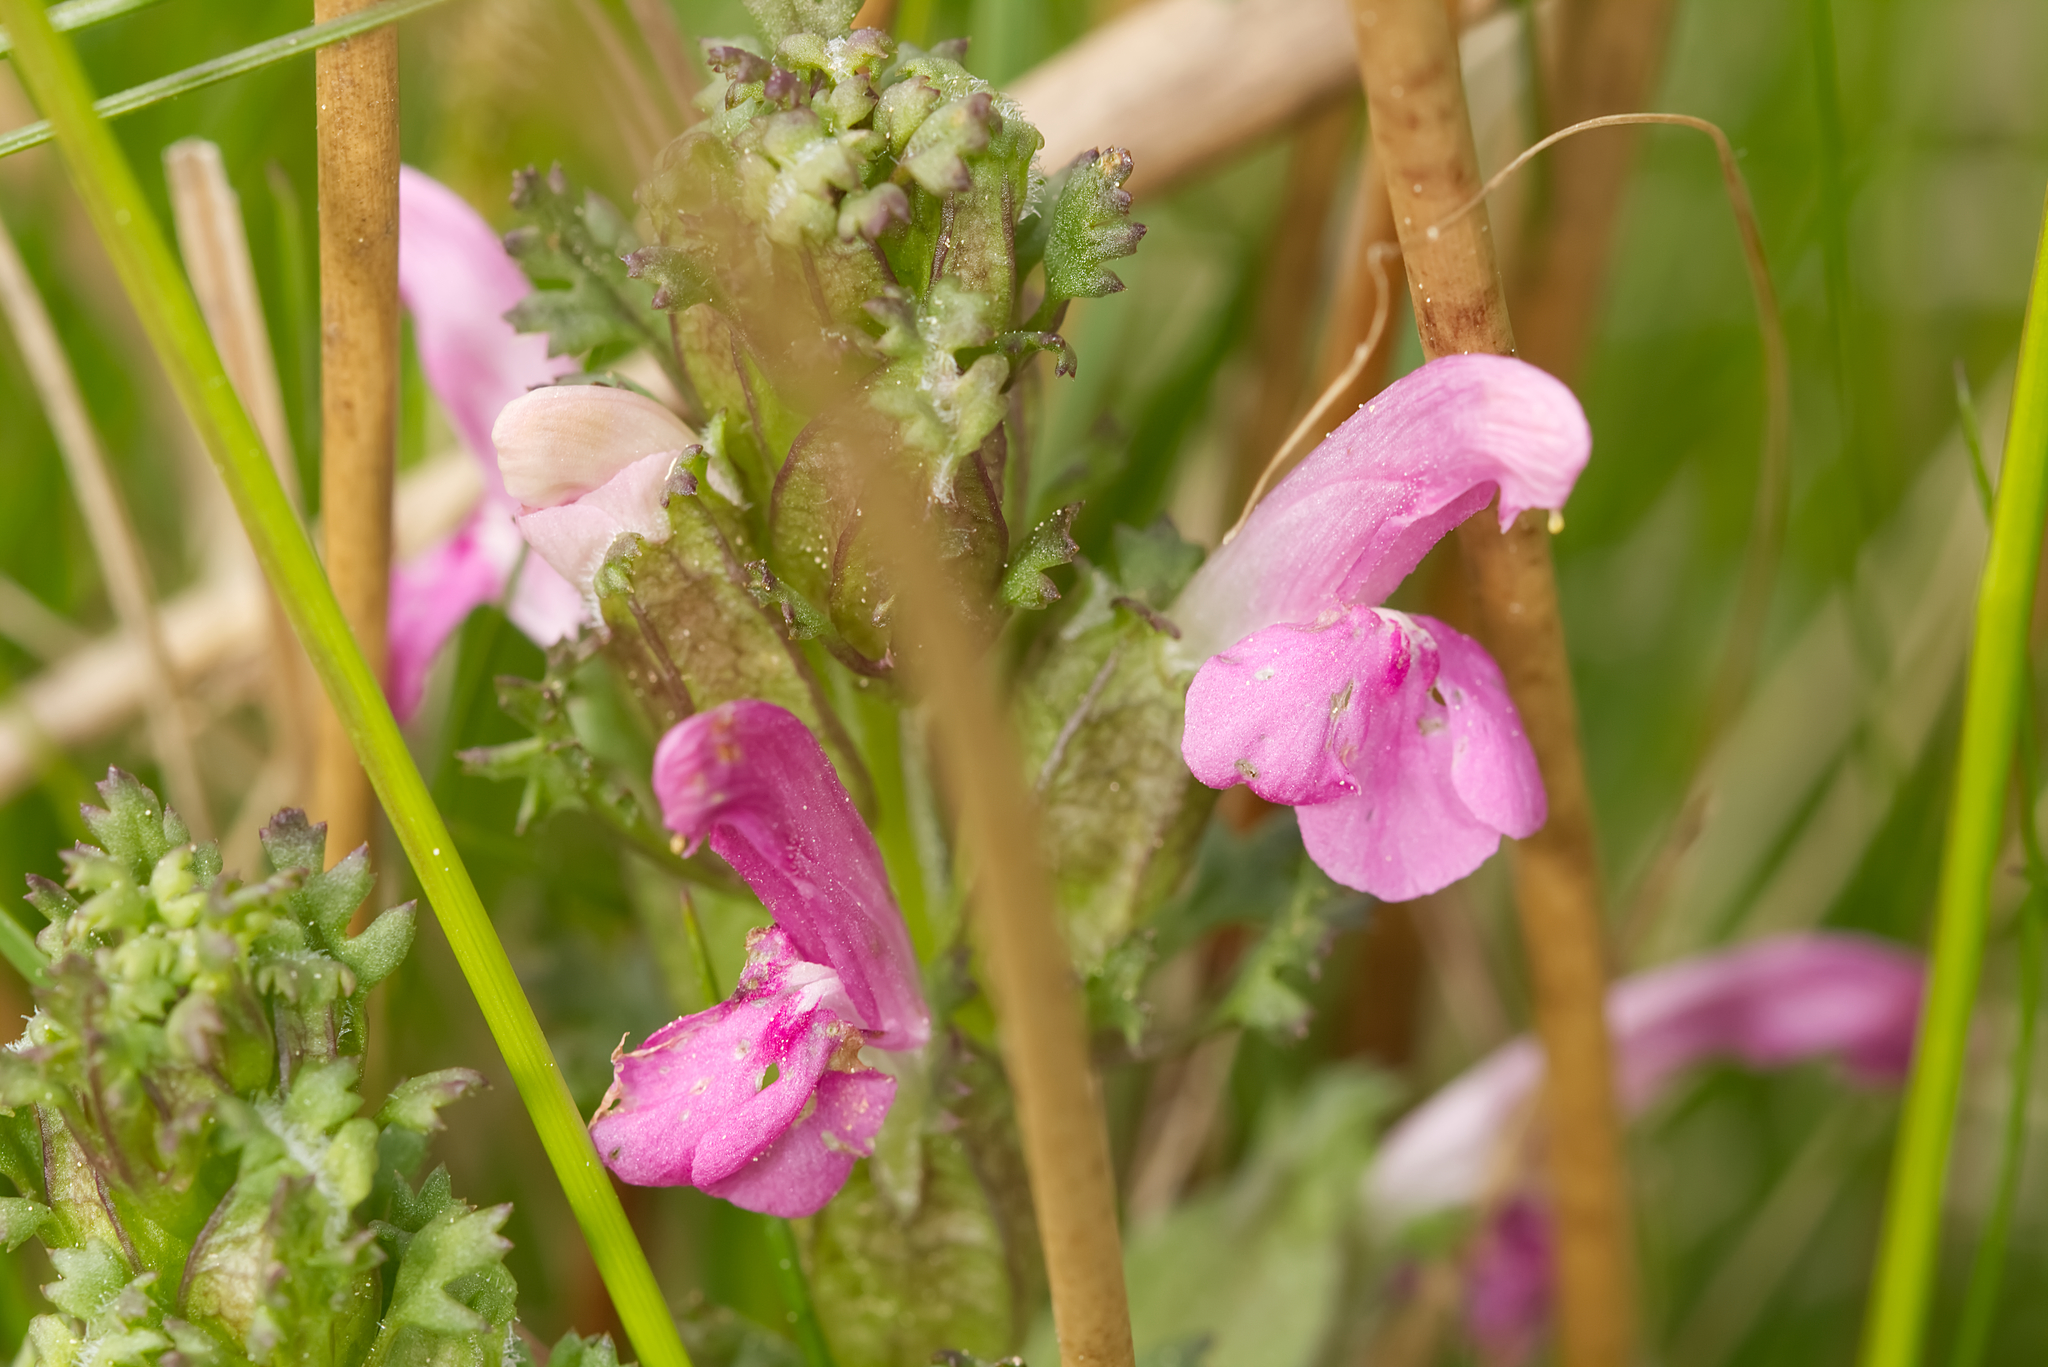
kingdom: Plantae
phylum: Tracheophyta
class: Magnoliopsida
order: Lamiales
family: Orobanchaceae
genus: Pedicularis
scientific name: Pedicularis sylvatica
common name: Lousewort
